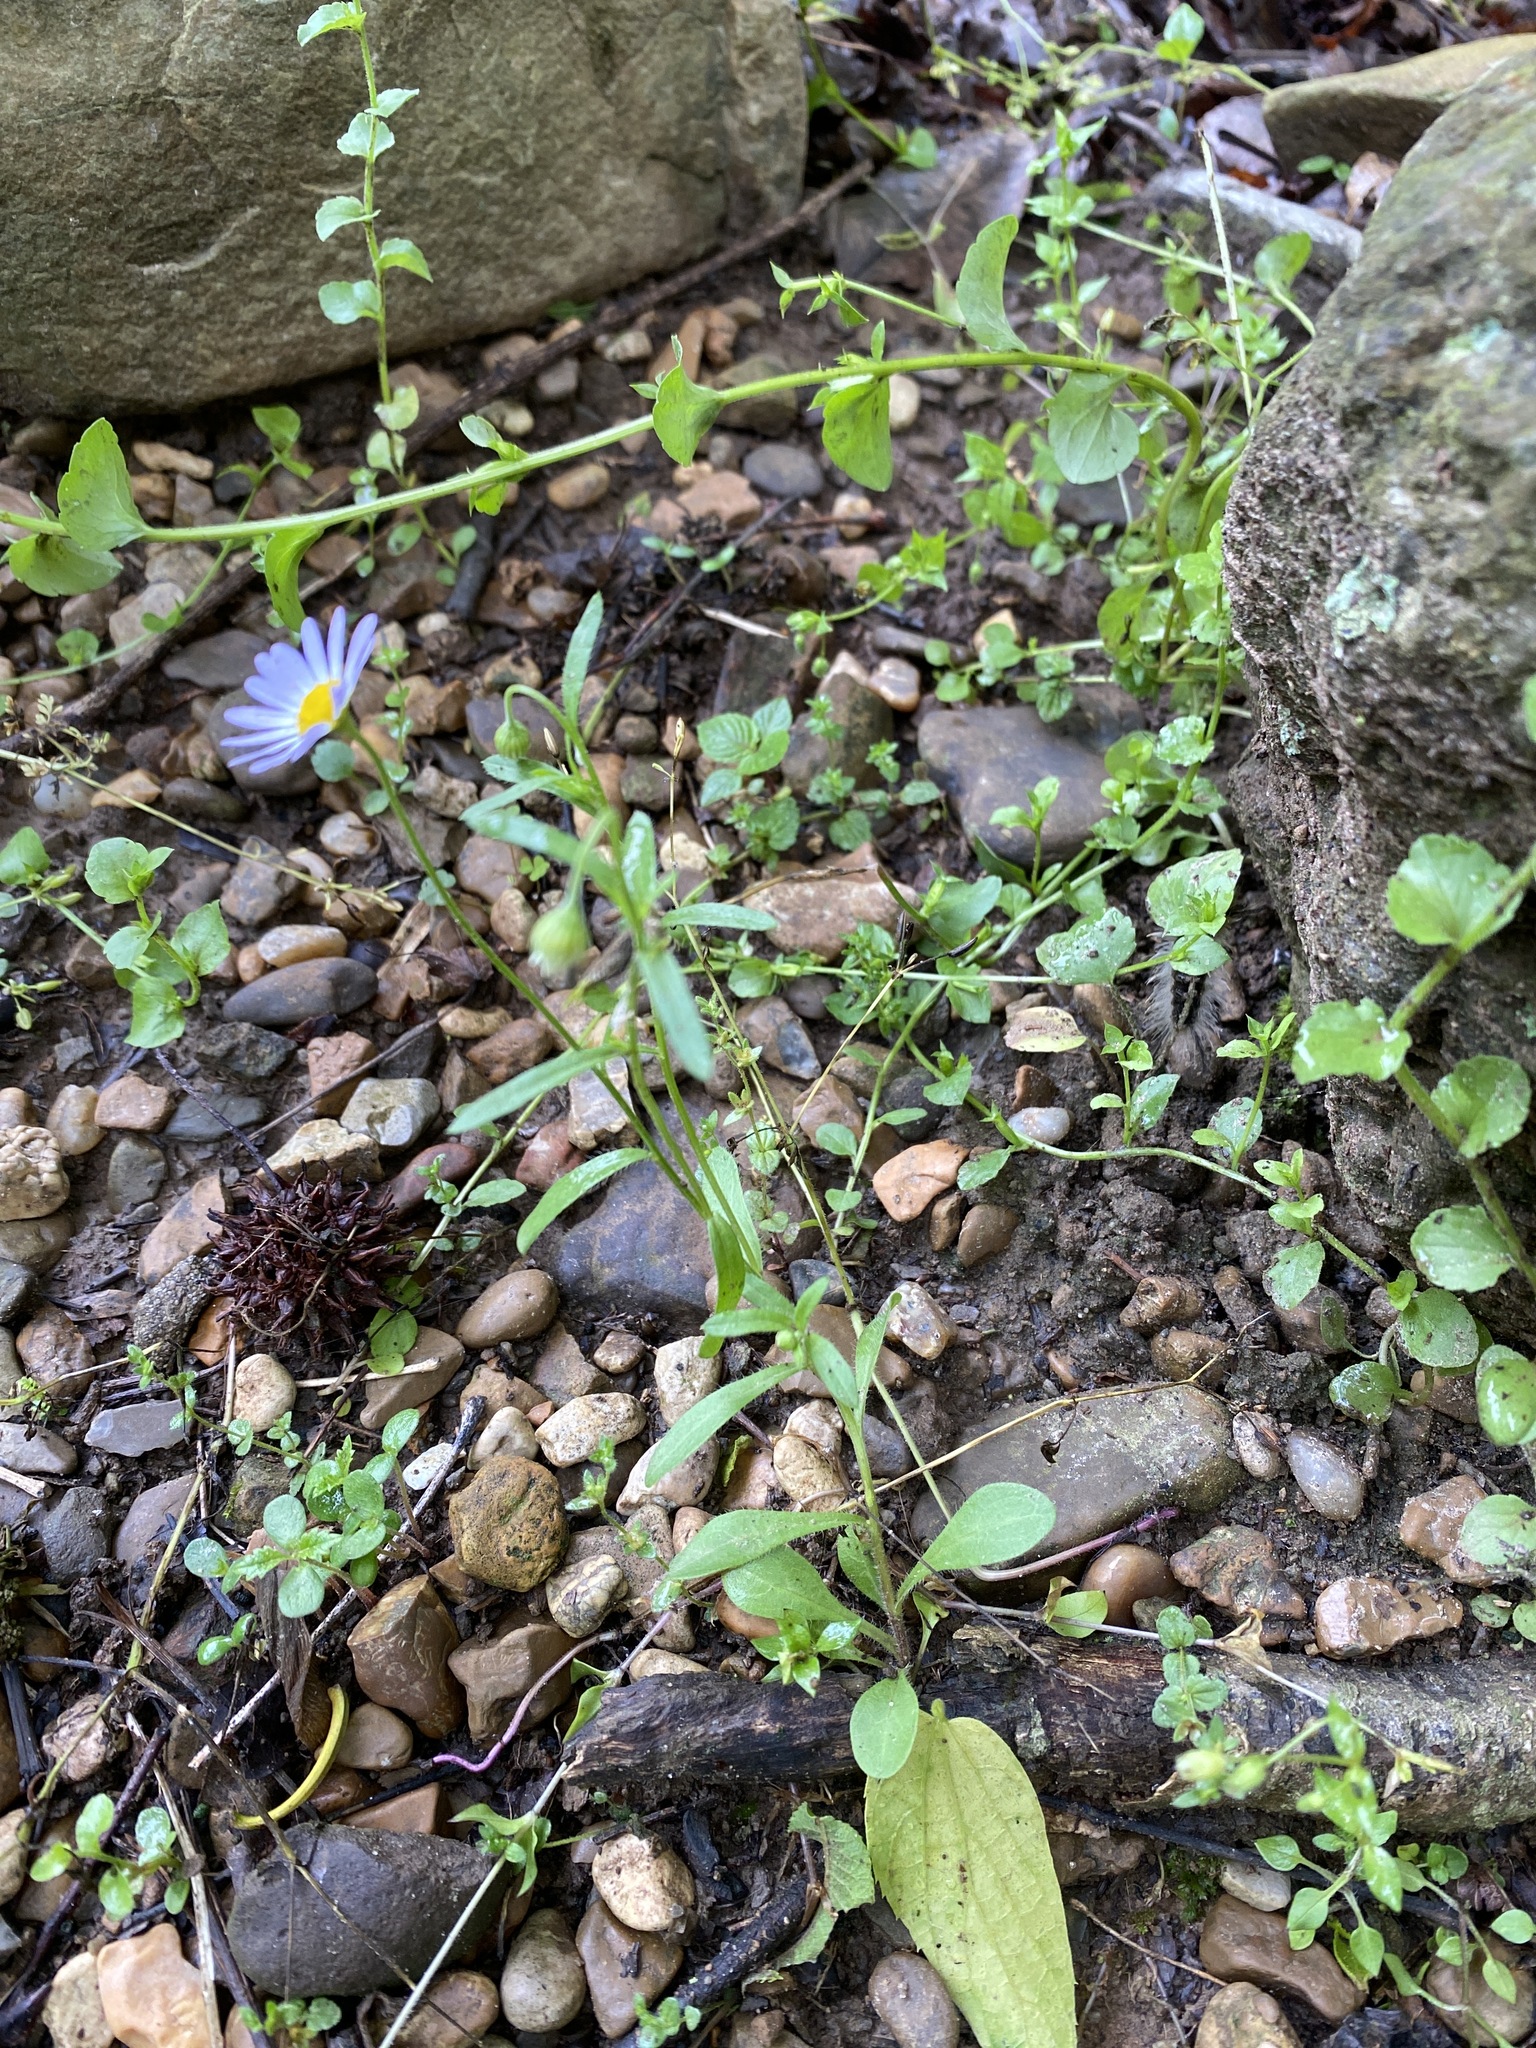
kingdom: Plantae
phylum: Tracheophyta
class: Magnoliopsida
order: Asterales
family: Asteraceae
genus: Astranthium
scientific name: Astranthium ciliatum
